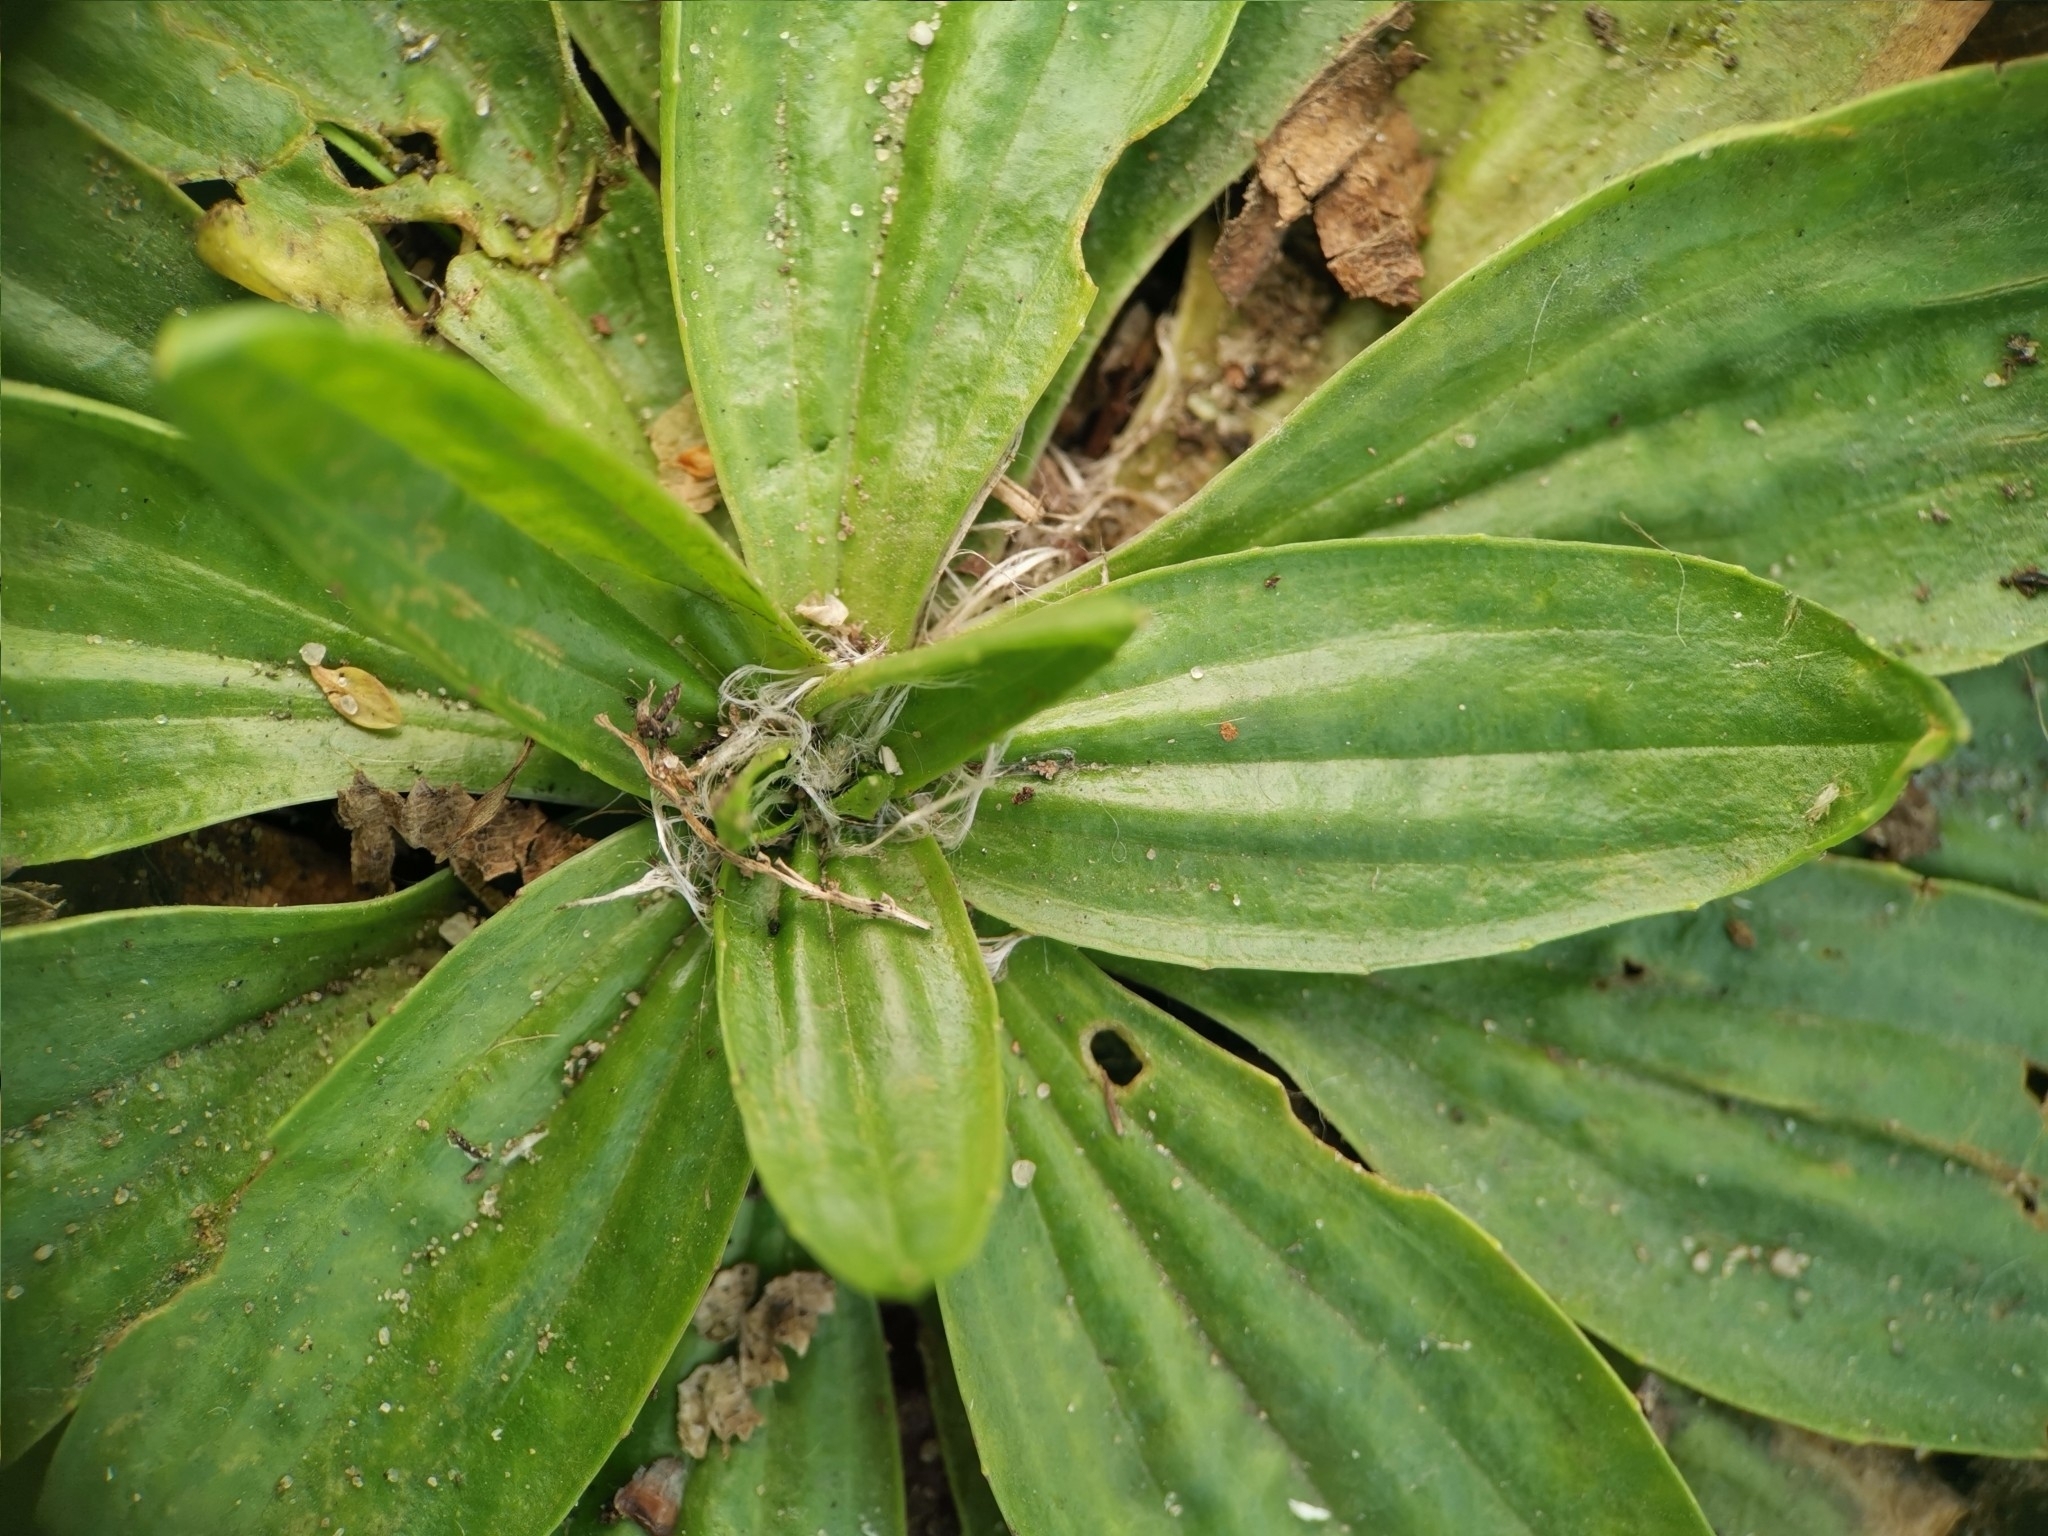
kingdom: Plantae
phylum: Tracheophyta
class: Magnoliopsida
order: Lamiales
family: Plantaginaceae
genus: Plantago
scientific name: Plantago lanceolata
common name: Ribwort plantain
